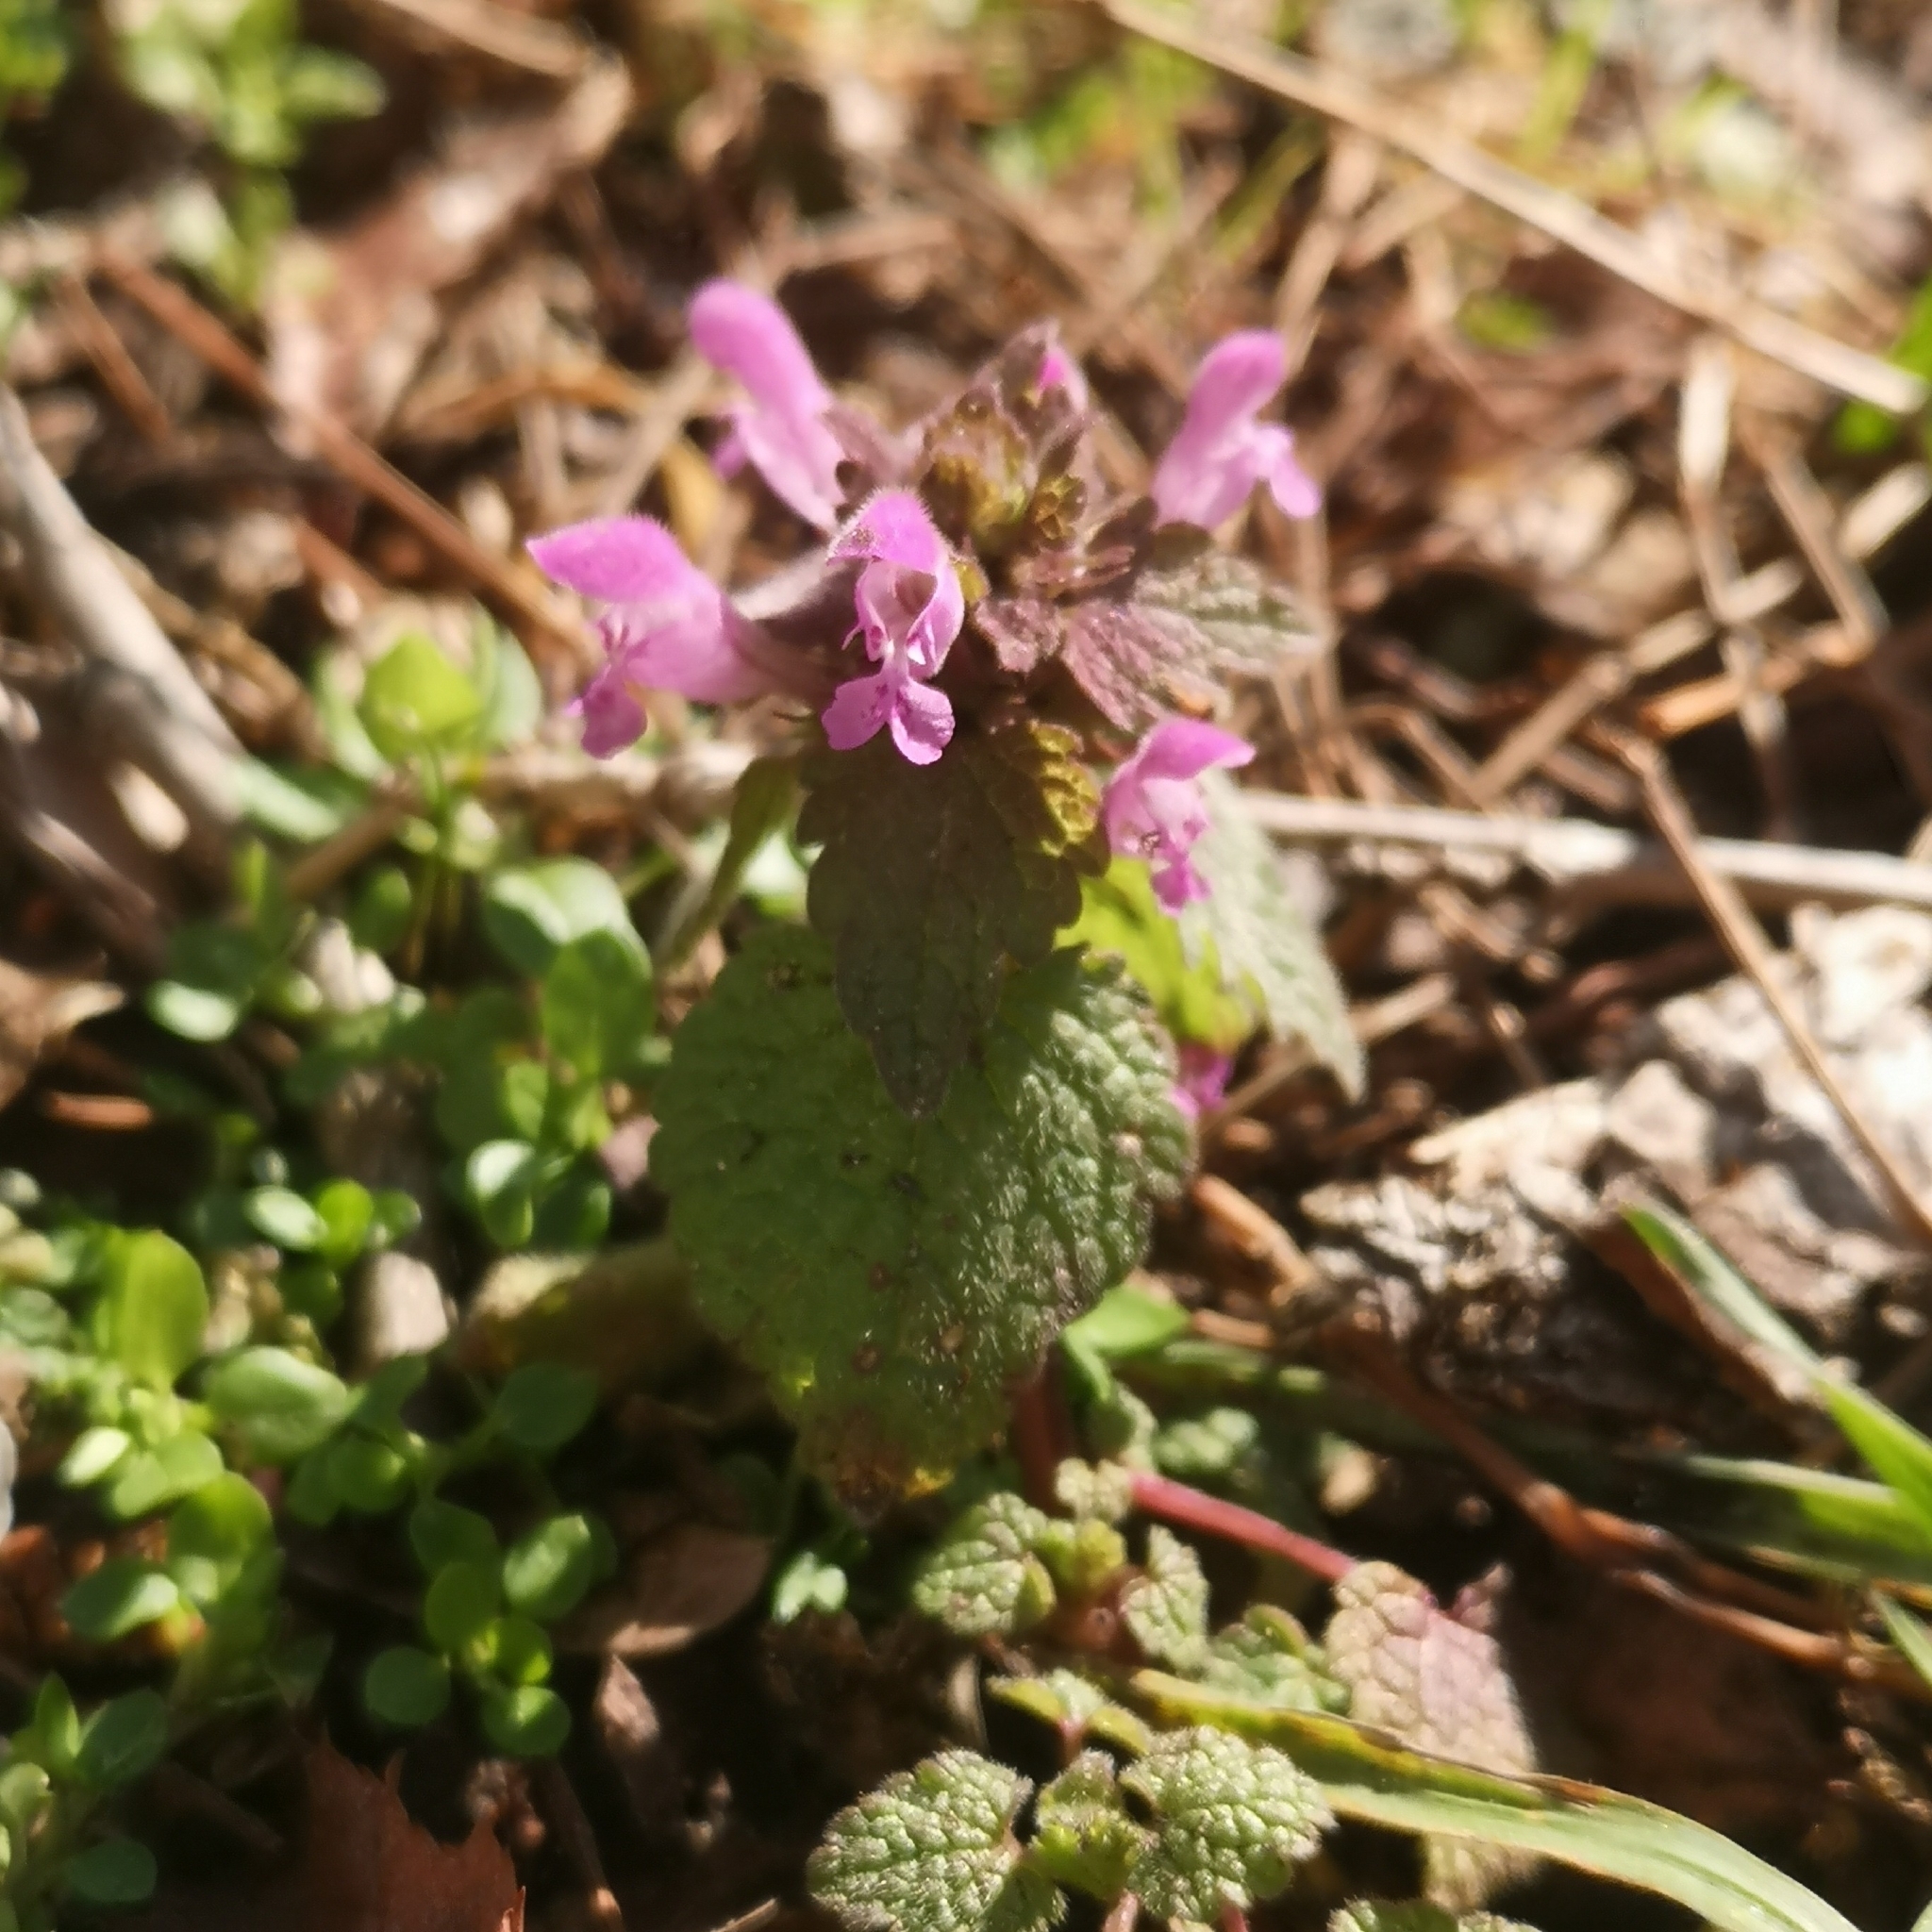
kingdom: Plantae
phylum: Tracheophyta
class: Magnoliopsida
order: Lamiales
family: Lamiaceae
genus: Lamium
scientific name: Lamium purpureum
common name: Red dead-nettle
